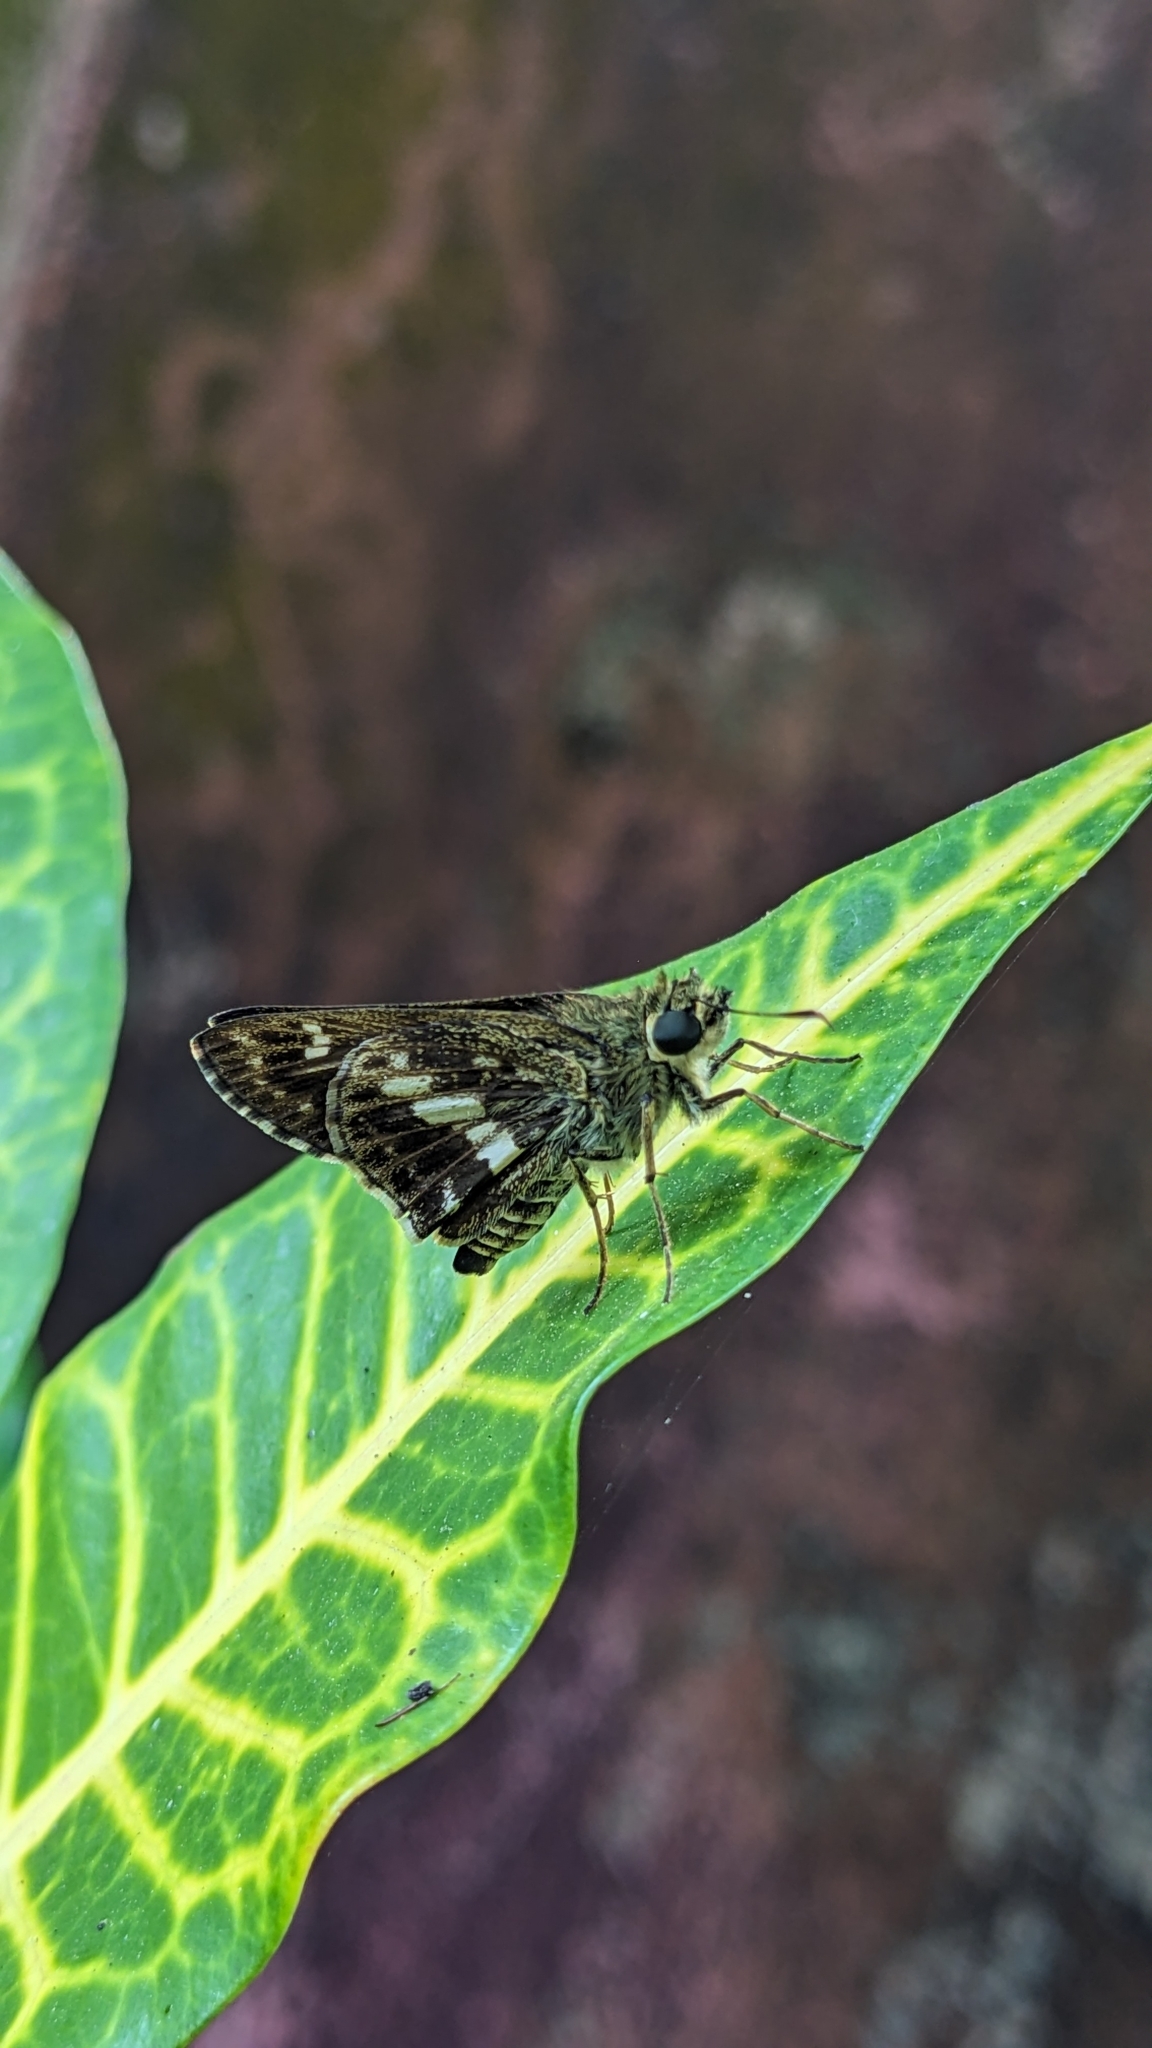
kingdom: Animalia
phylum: Arthropoda
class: Insecta
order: Lepidoptera
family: Hesperiidae
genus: Halpe
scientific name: Halpe porus
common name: Moore's ace
